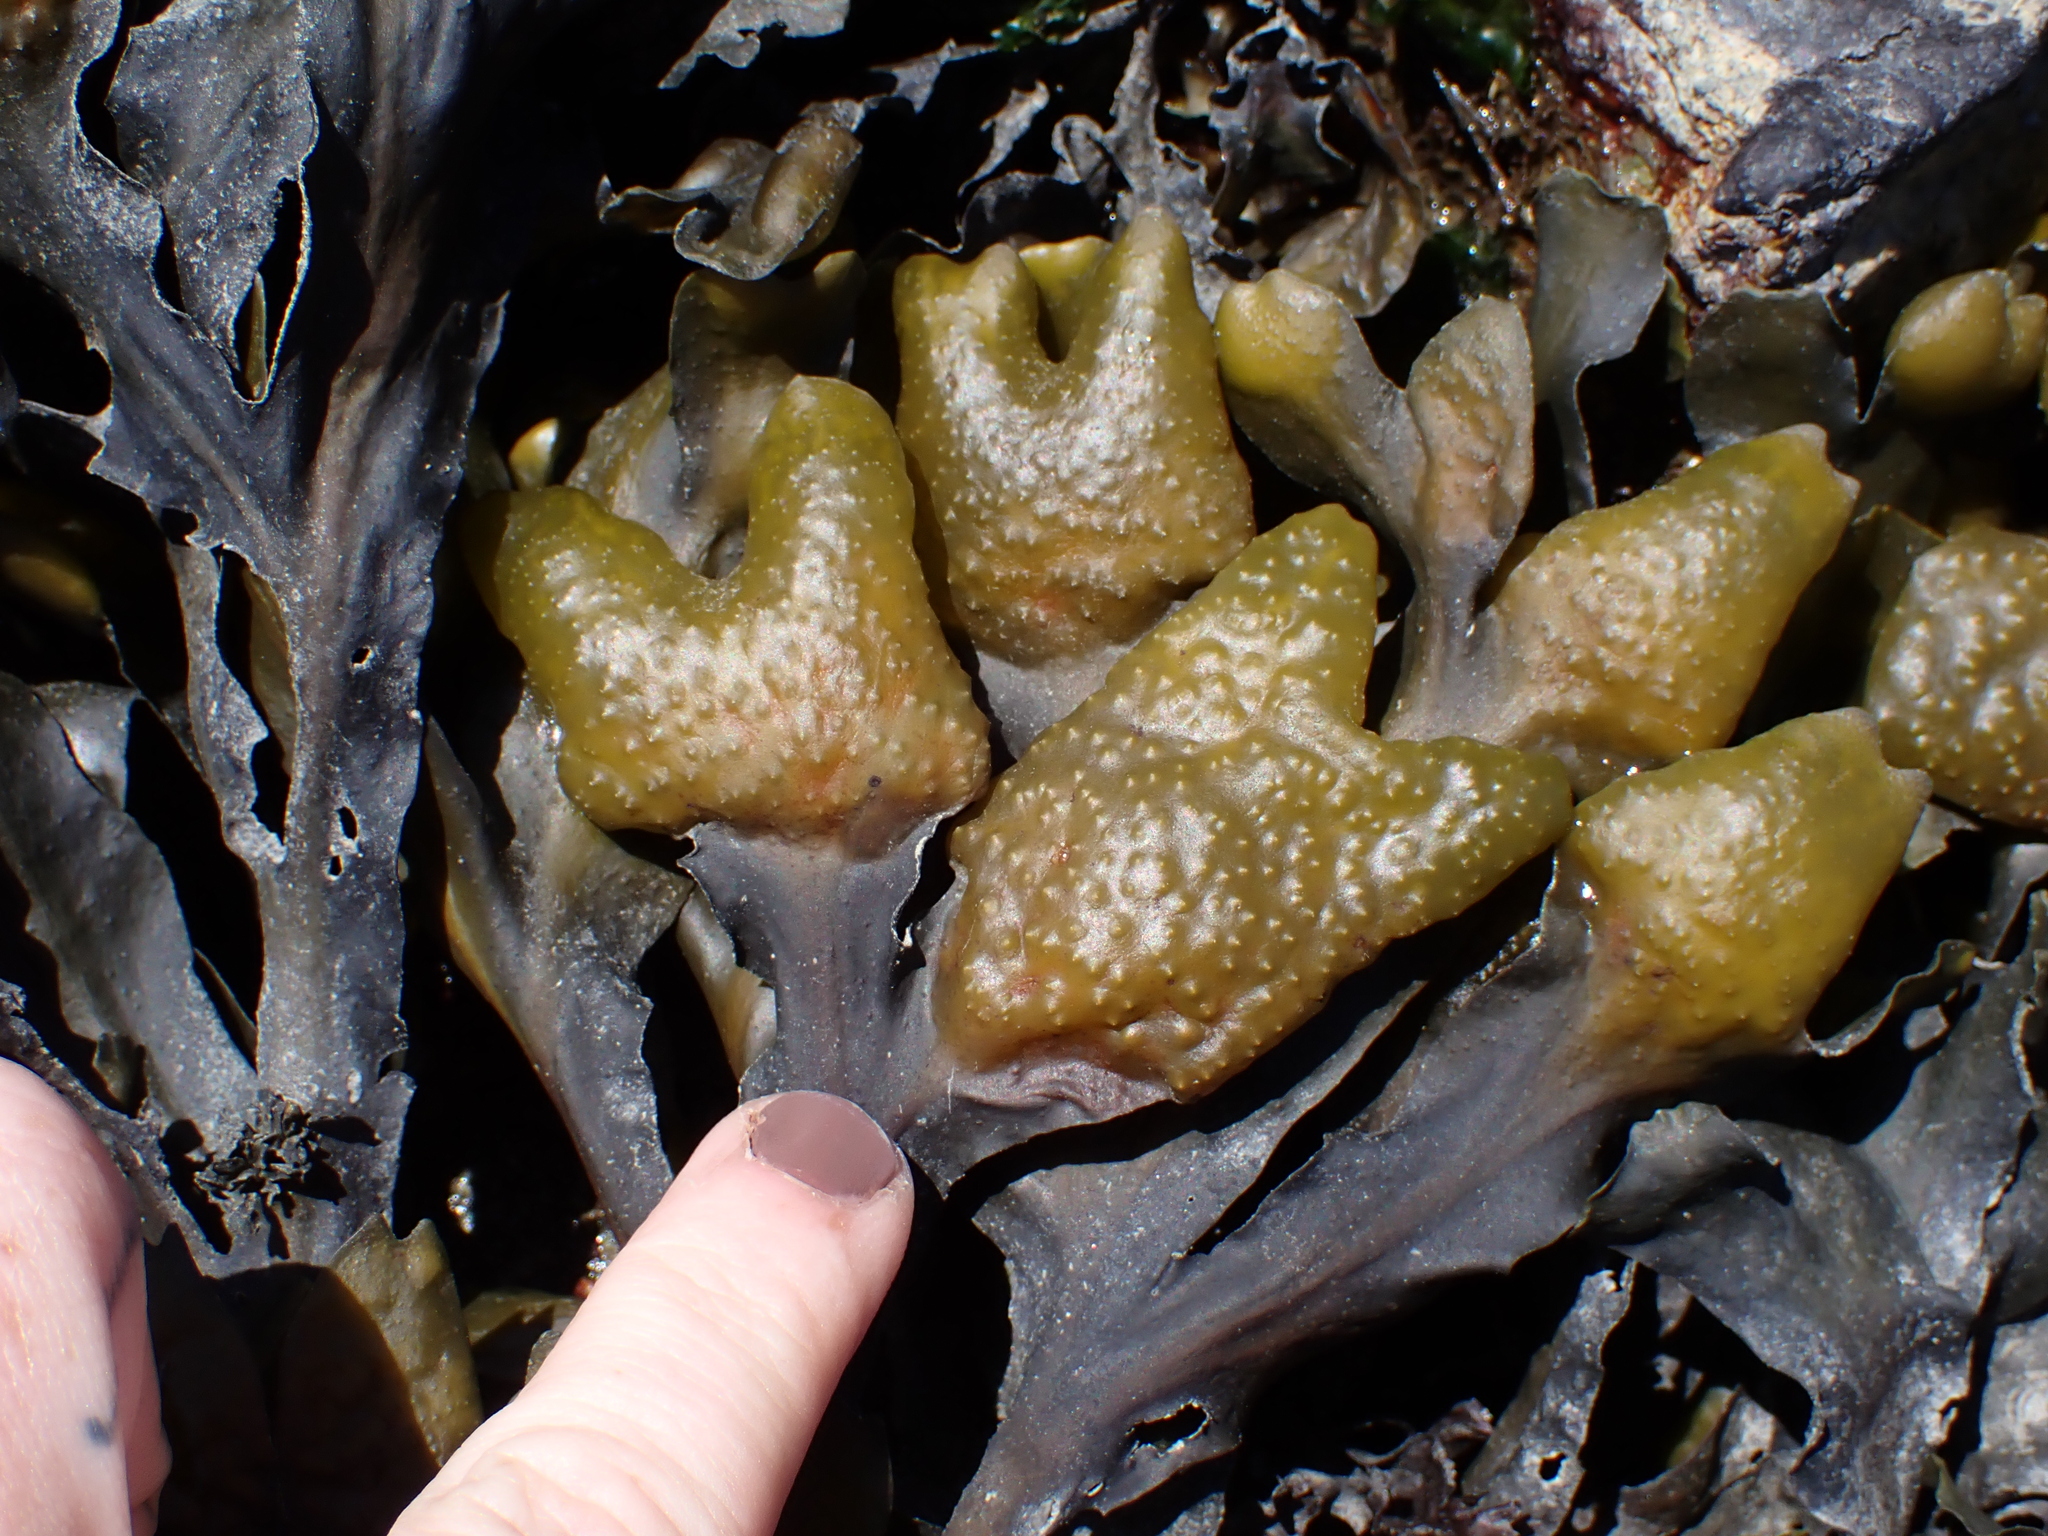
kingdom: Chromista
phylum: Ochrophyta
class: Phaeophyceae
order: Fucales
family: Fucaceae
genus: Fucus
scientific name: Fucus distichus
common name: Rockweed
